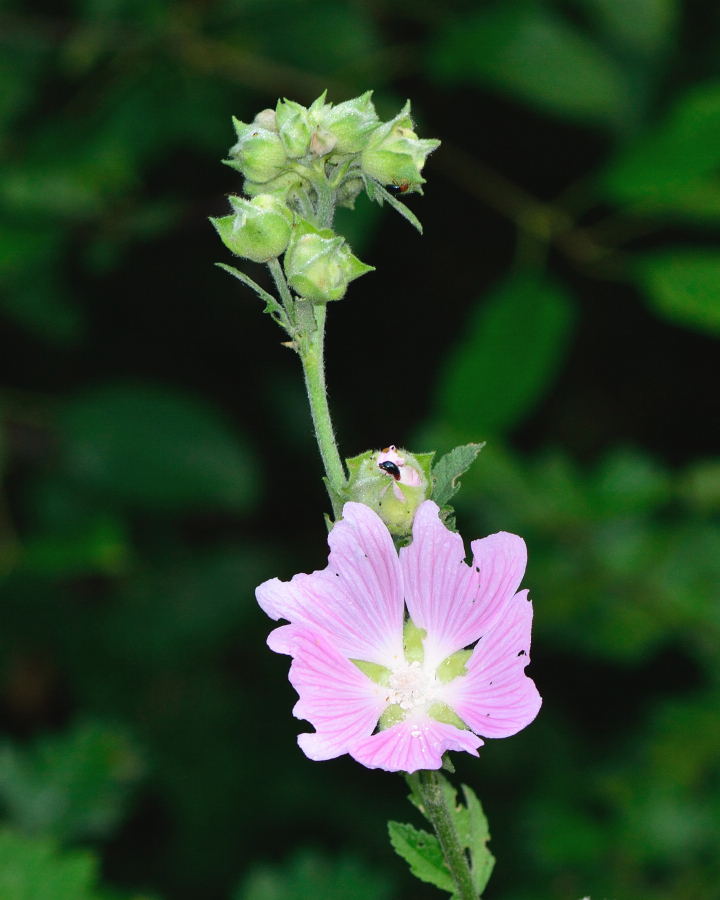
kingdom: Plantae
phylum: Tracheophyta
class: Magnoliopsida
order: Malvales
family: Malvaceae
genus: Malva
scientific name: Malva thuringiaca
